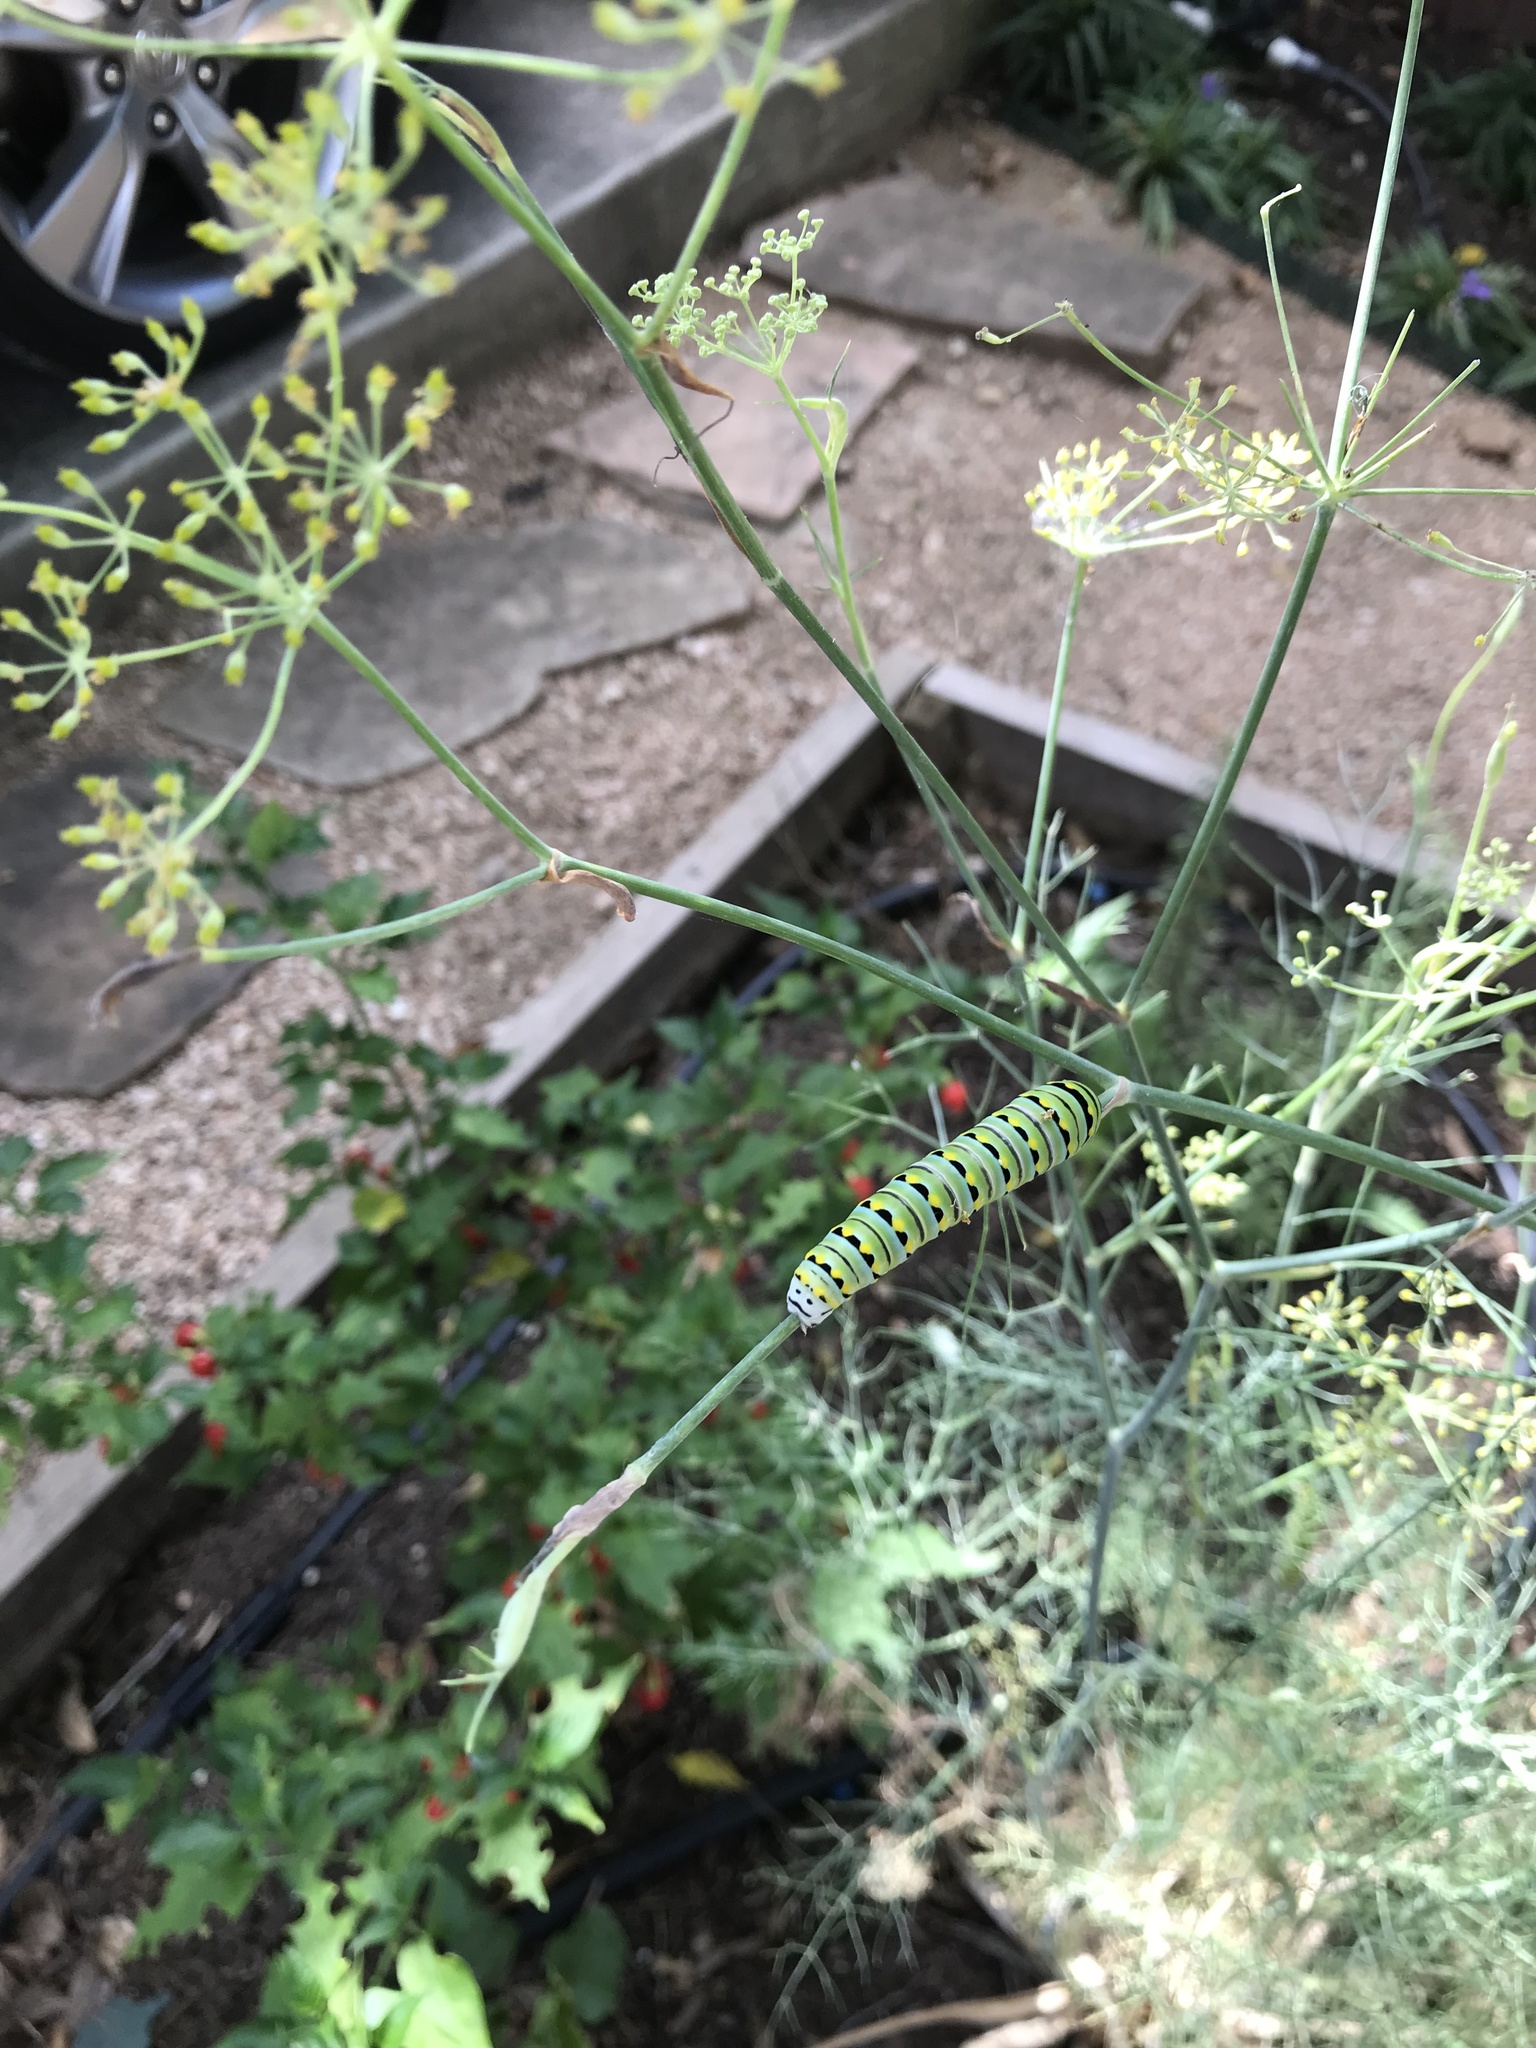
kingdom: Animalia
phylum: Arthropoda
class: Insecta
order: Lepidoptera
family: Papilionidae
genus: Papilio
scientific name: Papilio polyxenes
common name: Black swallowtail
